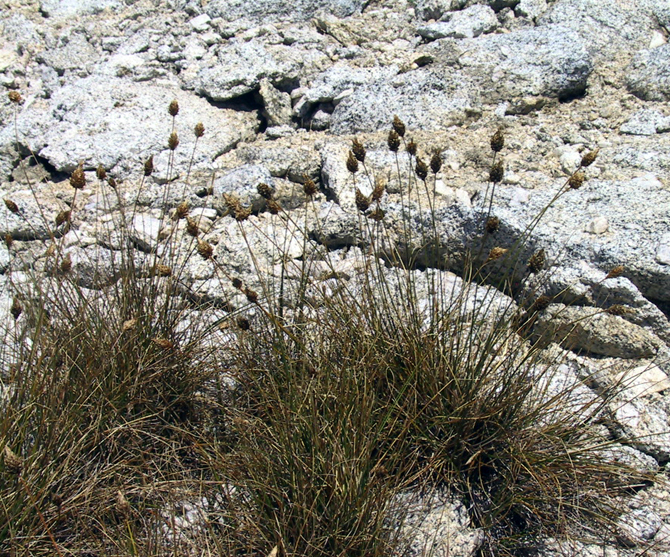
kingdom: Plantae
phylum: Tracheophyta
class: Liliopsida
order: Poales
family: Cyperaceae
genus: Carex
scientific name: Carex breweri
